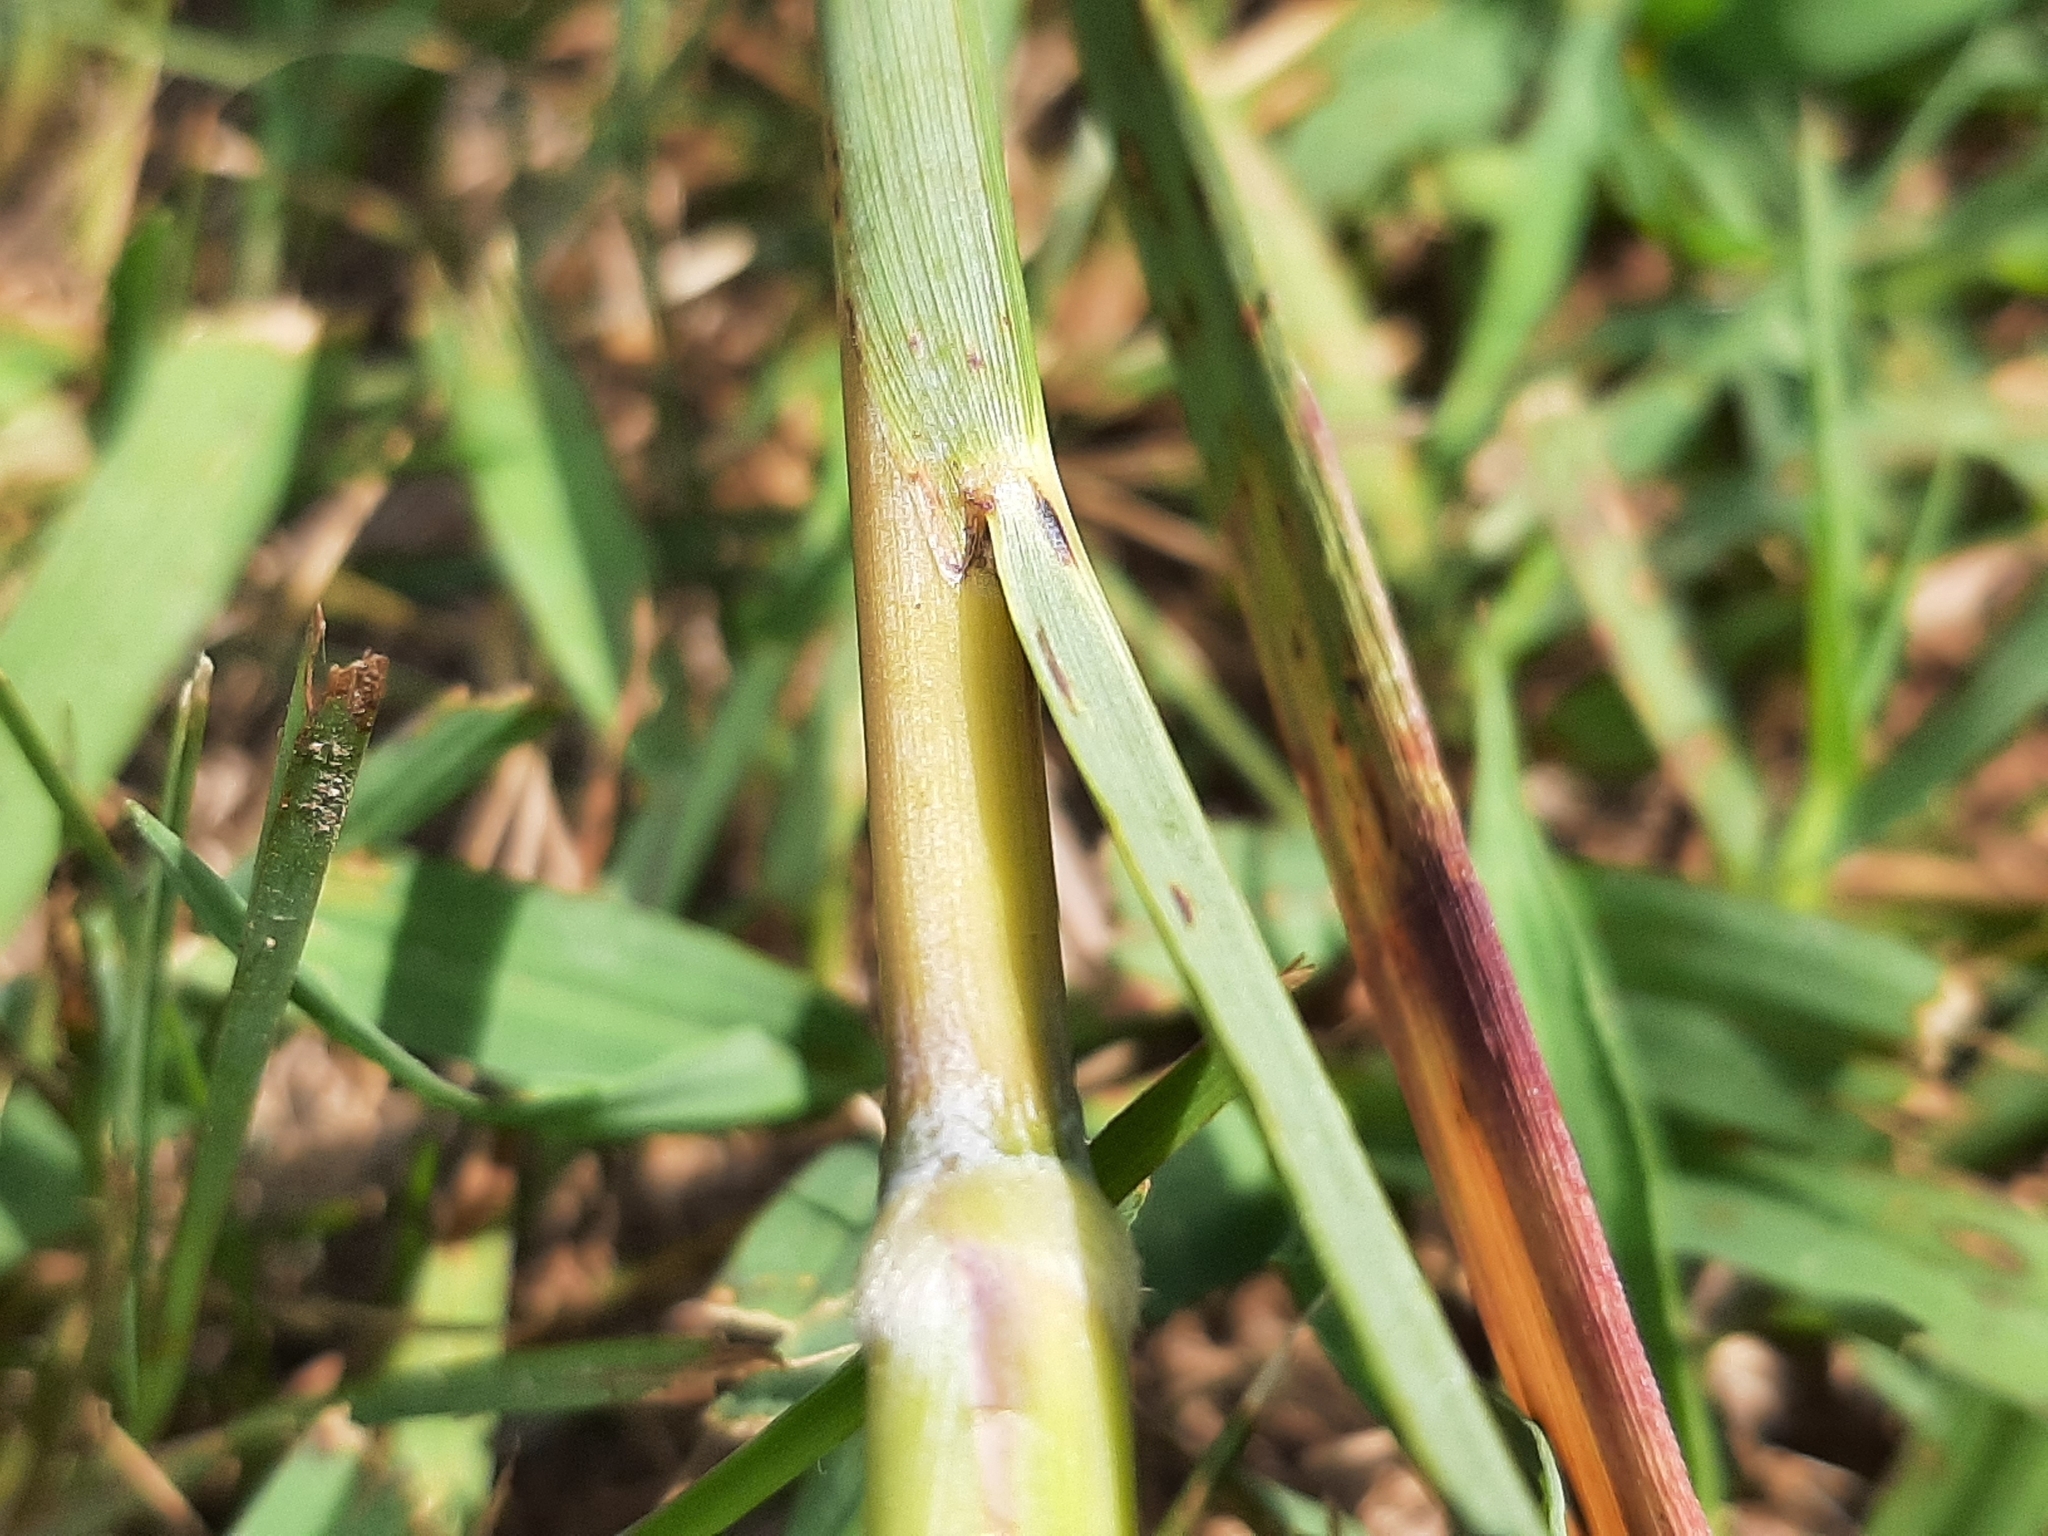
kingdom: Plantae
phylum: Tracheophyta
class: Liliopsida
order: Poales
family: Poaceae
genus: Sorghastrum
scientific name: Sorghastrum nutans
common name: Indian grass
